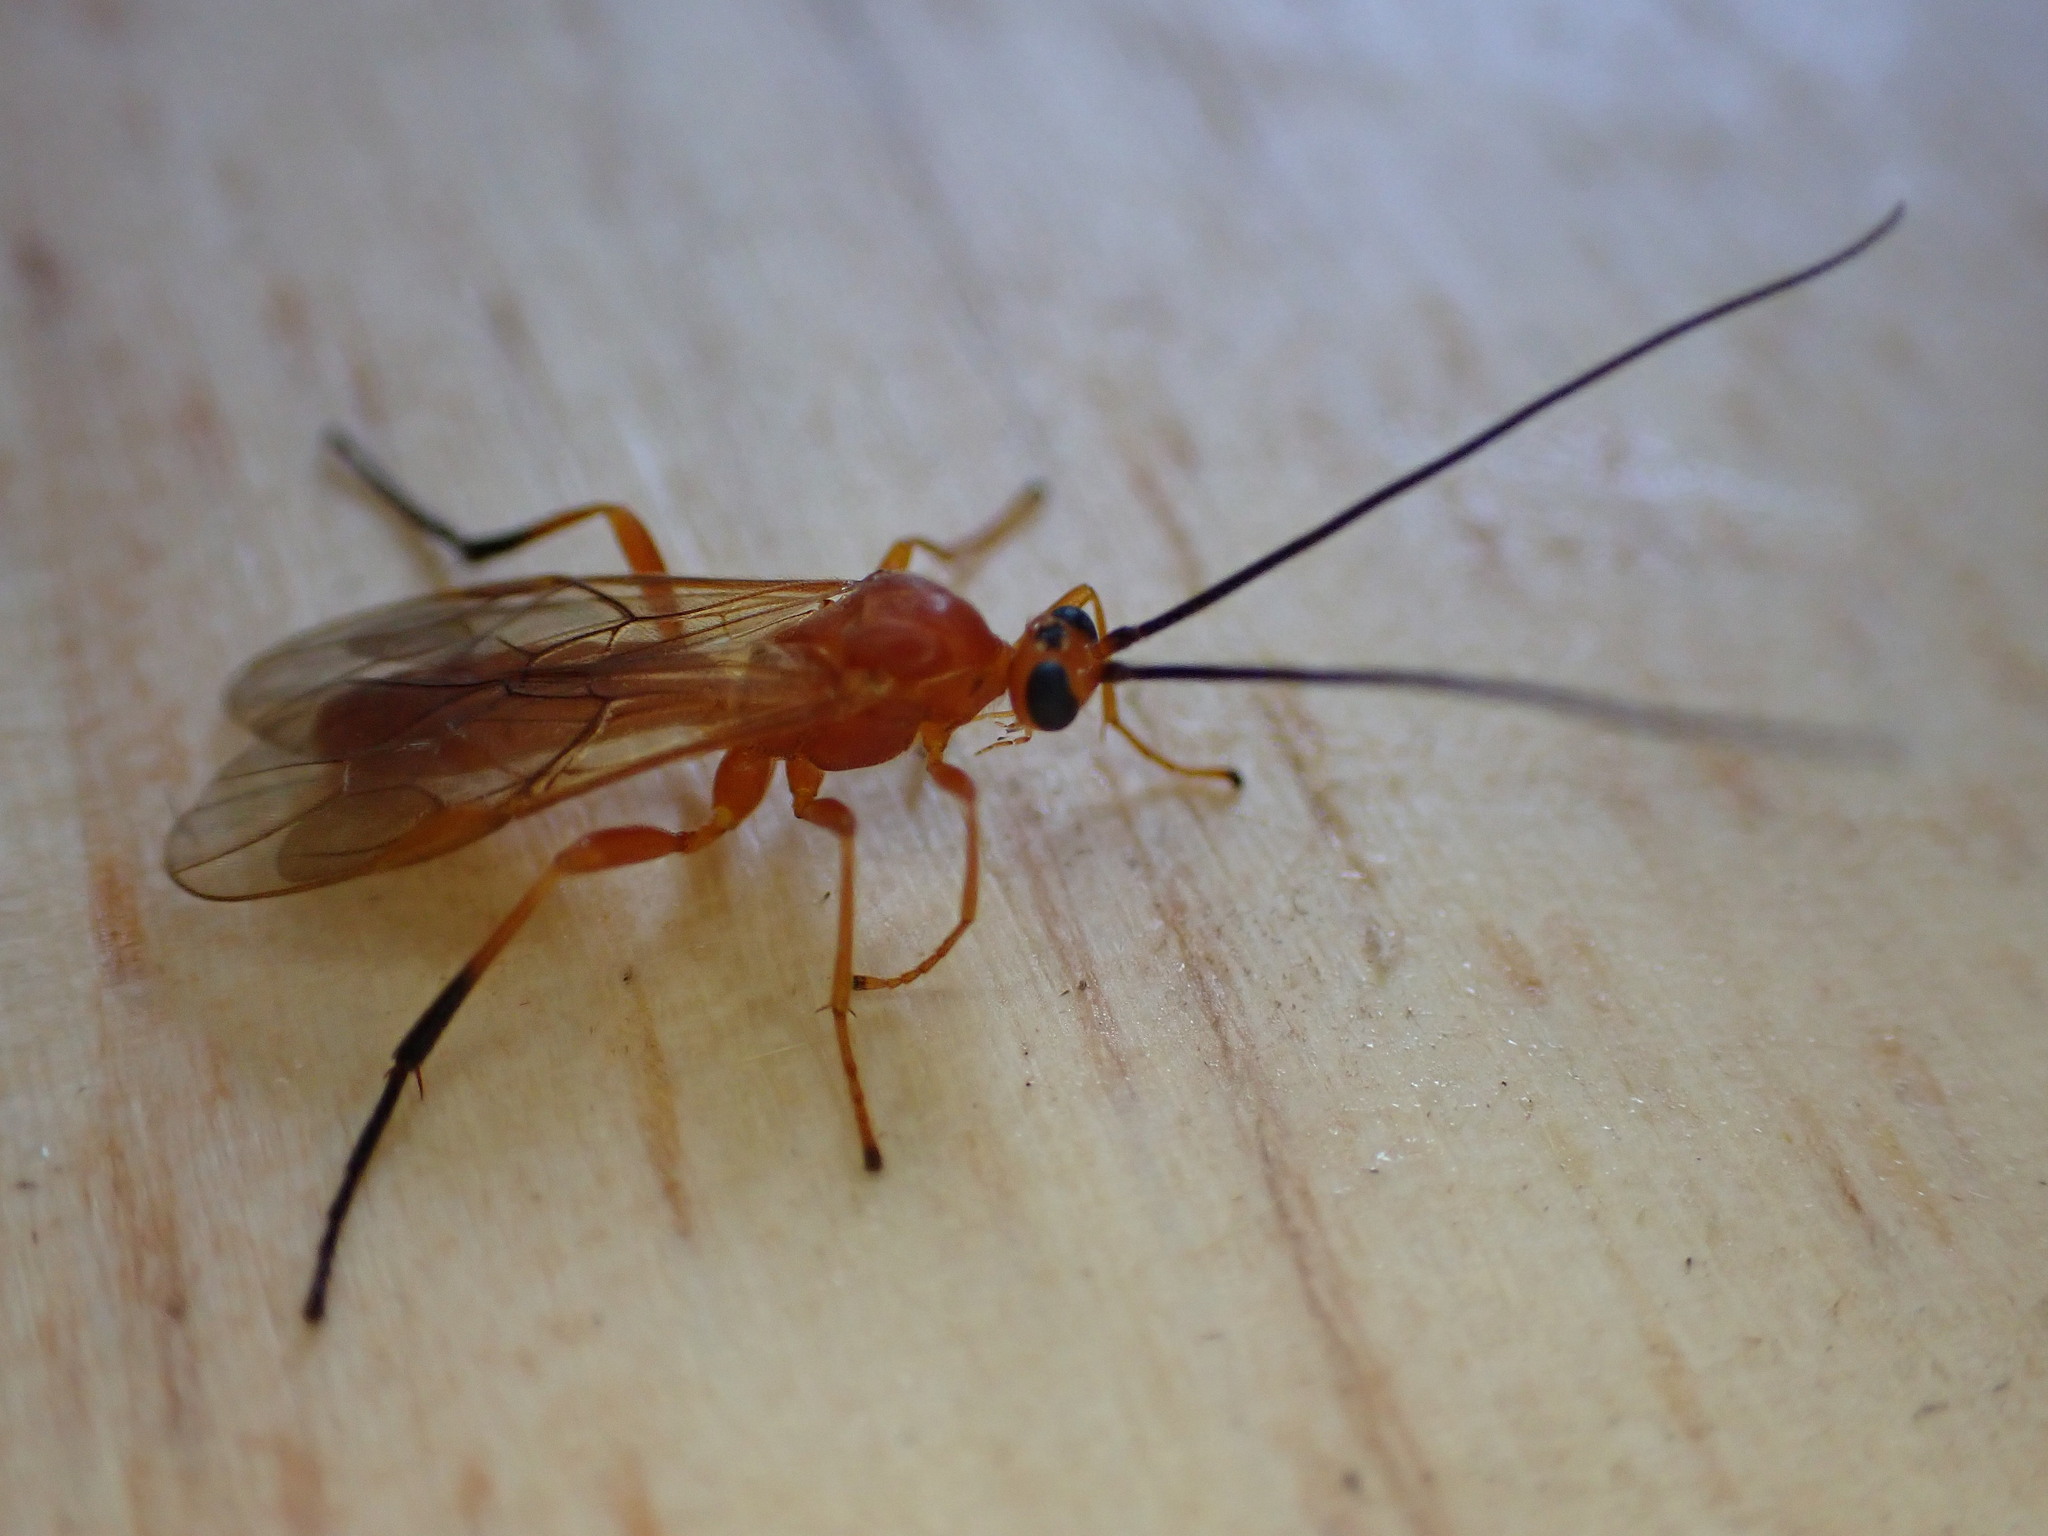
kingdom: Animalia
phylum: Arthropoda
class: Insecta
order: Hymenoptera
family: Braconidae
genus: Aleiodes
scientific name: Aleiodes praetor
